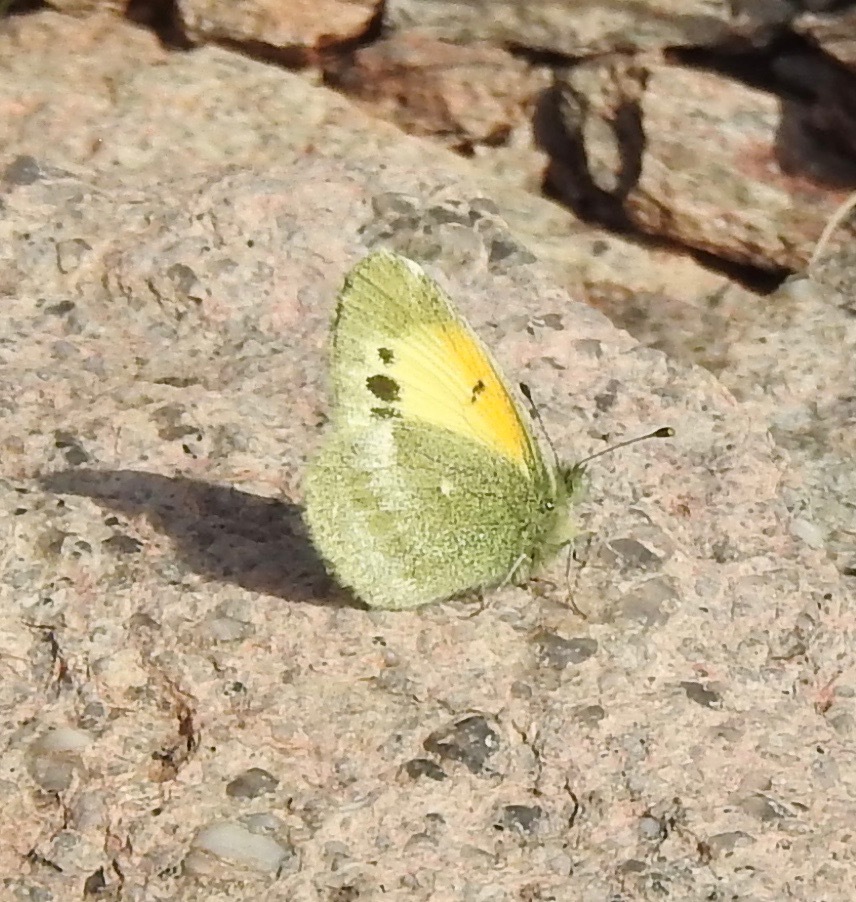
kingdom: Animalia
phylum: Arthropoda
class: Insecta
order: Lepidoptera
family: Pieridae
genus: Nathalis
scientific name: Nathalis iole
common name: Dainty sulphur
